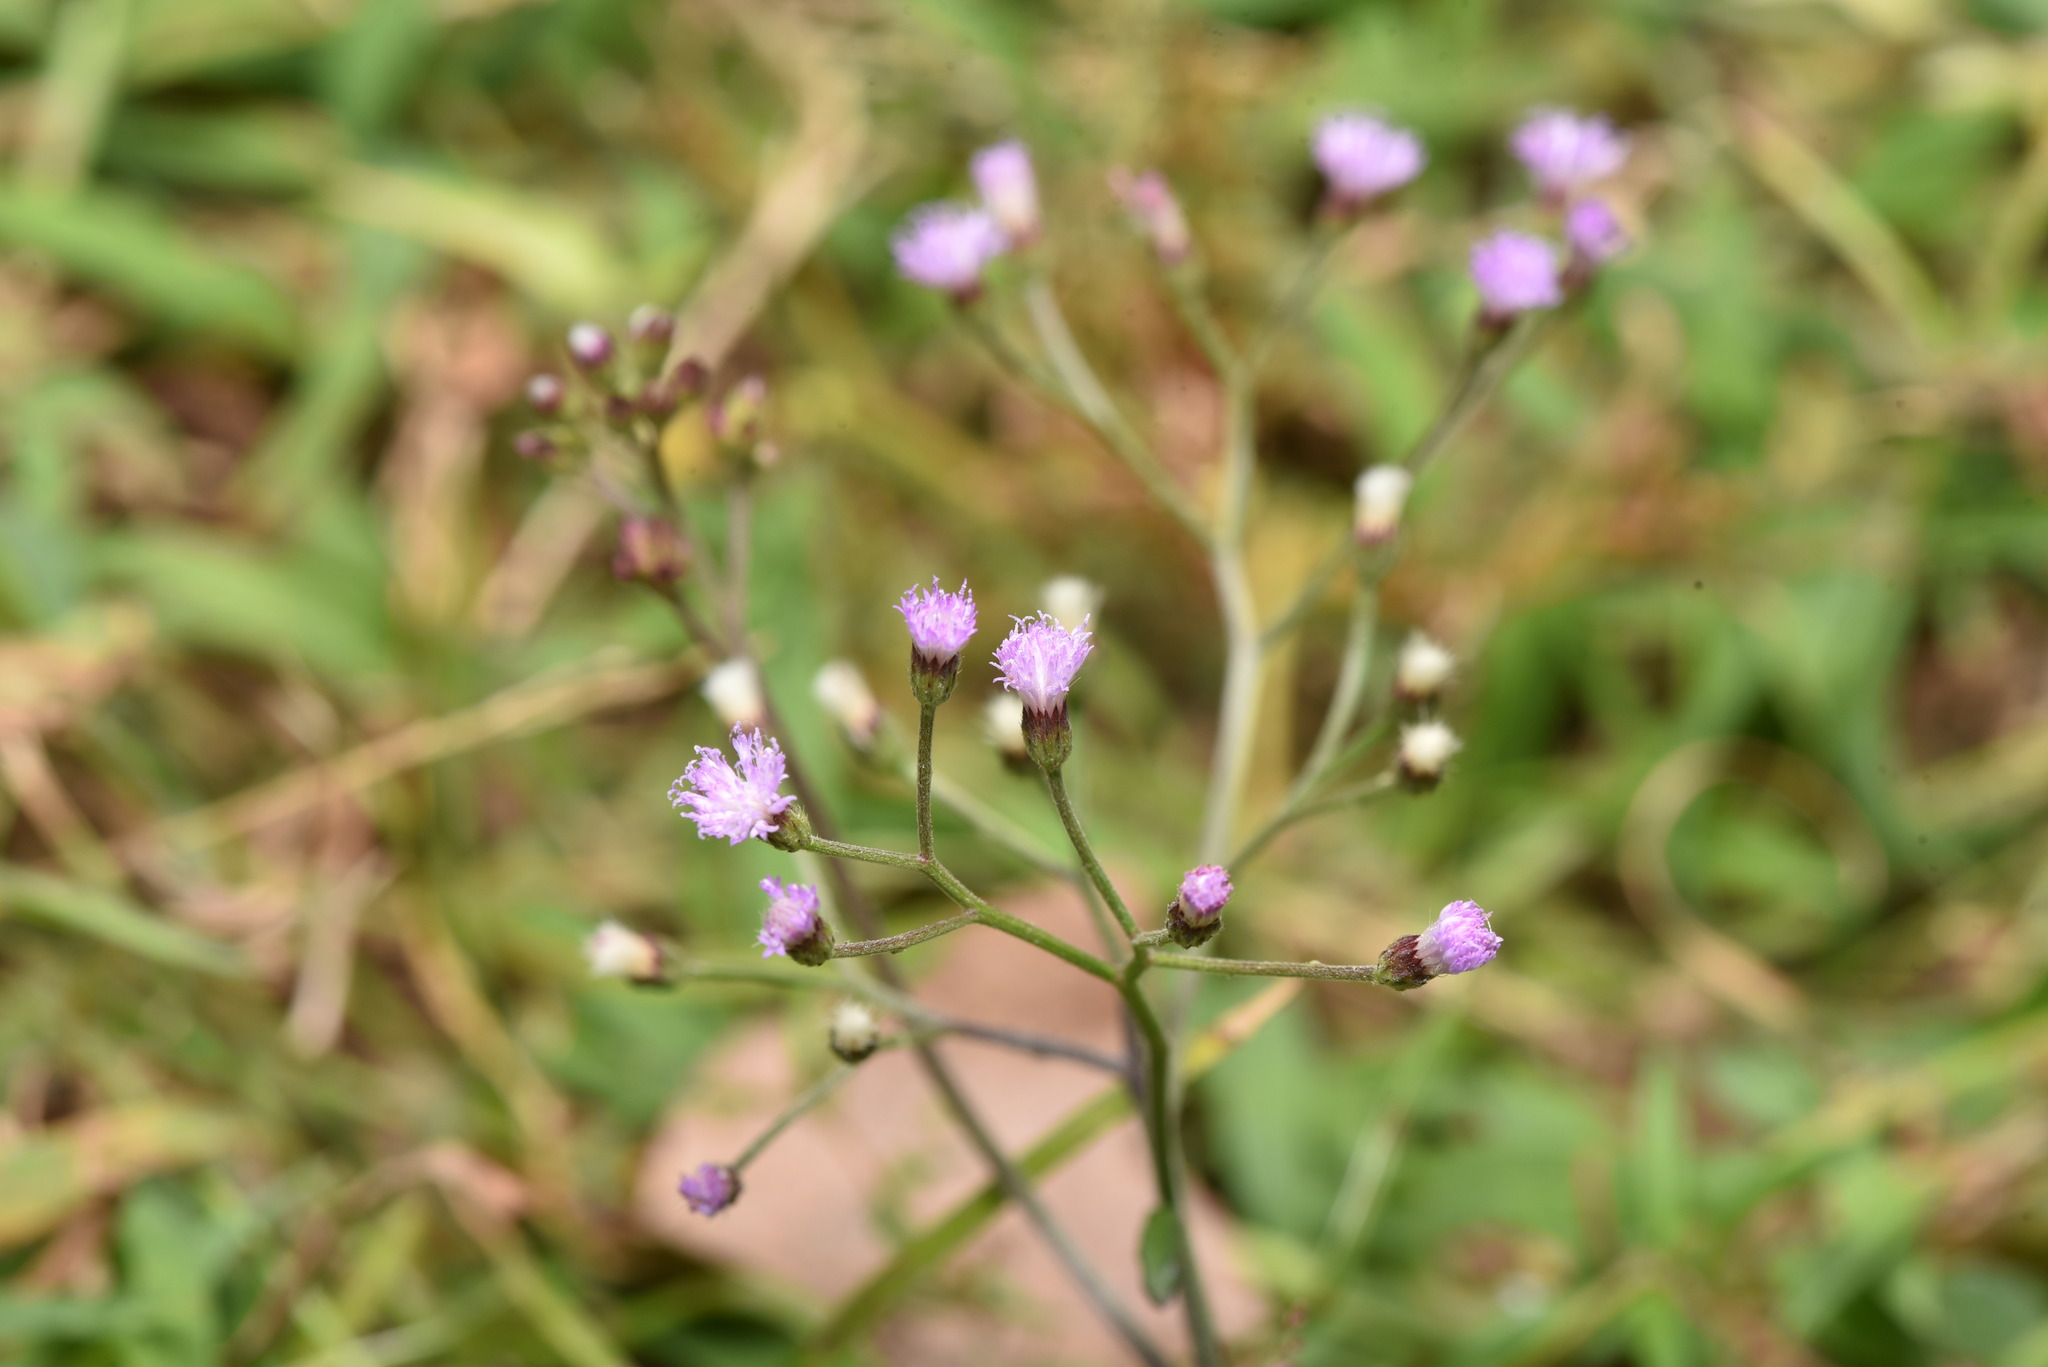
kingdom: Plantae
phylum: Tracheophyta
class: Magnoliopsida
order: Asterales
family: Asteraceae
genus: Cyanthillium
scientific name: Cyanthillium cinereum
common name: Little ironweed
